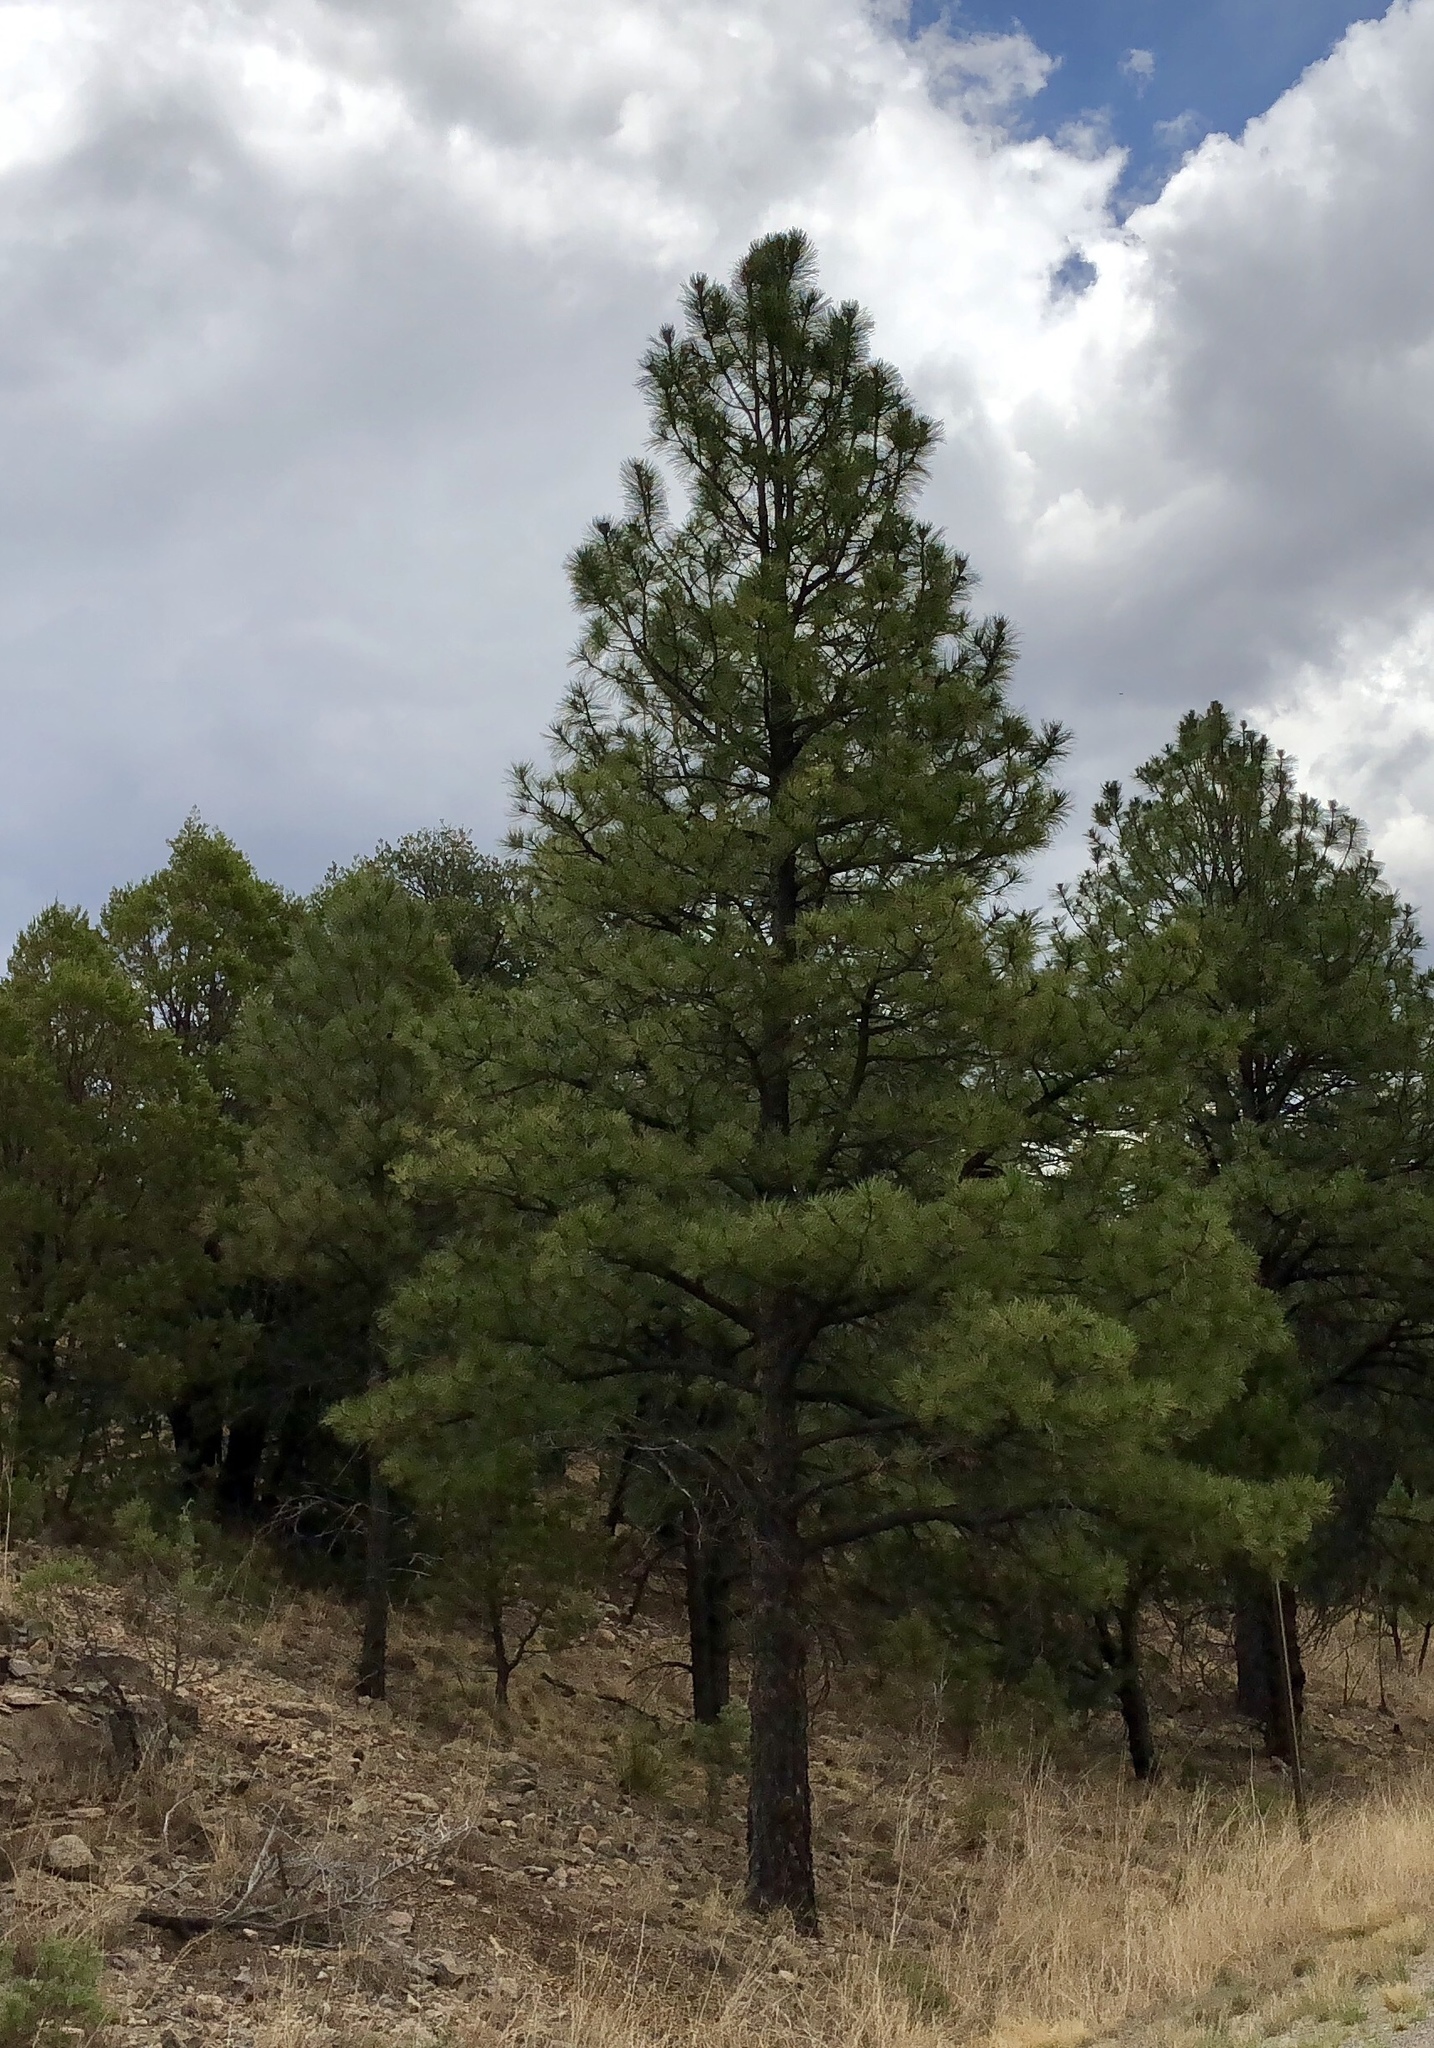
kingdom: Plantae
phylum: Tracheophyta
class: Pinopsida
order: Pinales
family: Pinaceae
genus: Pinus
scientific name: Pinus ponderosa
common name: Western yellow-pine
